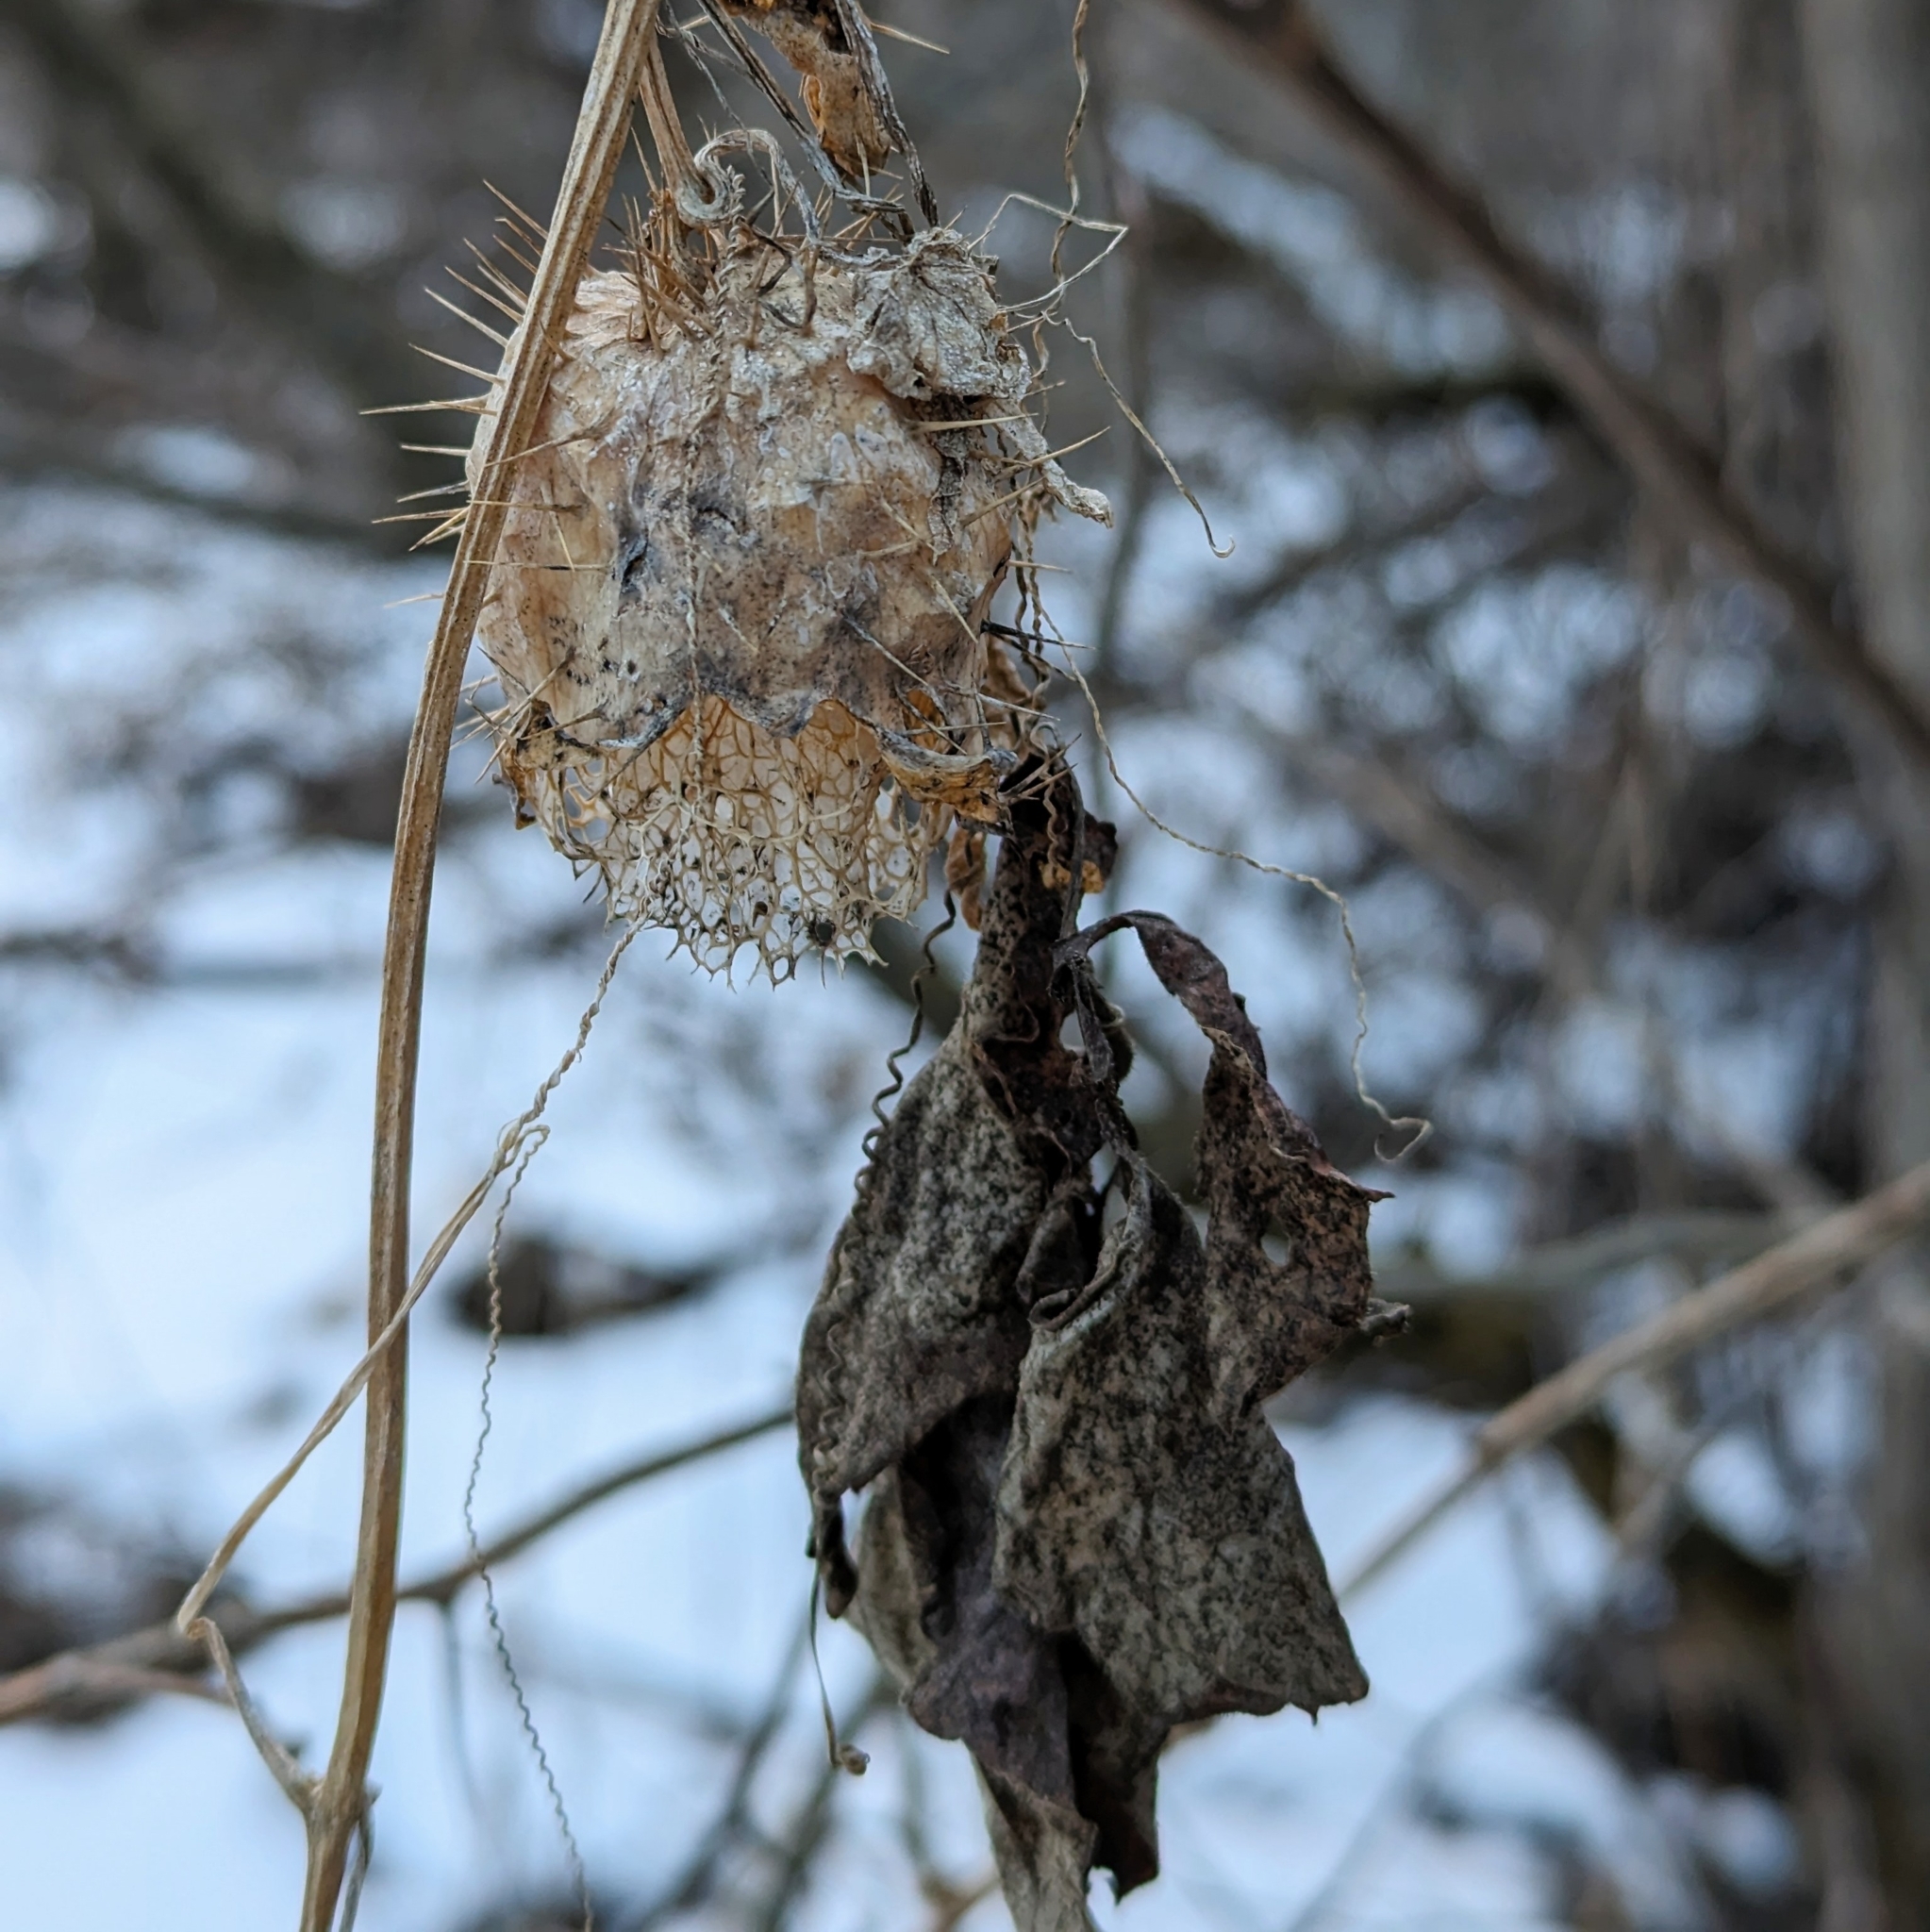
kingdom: Plantae
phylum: Tracheophyta
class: Magnoliopsida
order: Cucurbitales
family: Cucurbitaceae
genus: Echinocystis
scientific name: Echinocystis lobata
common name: Wild cucumber
